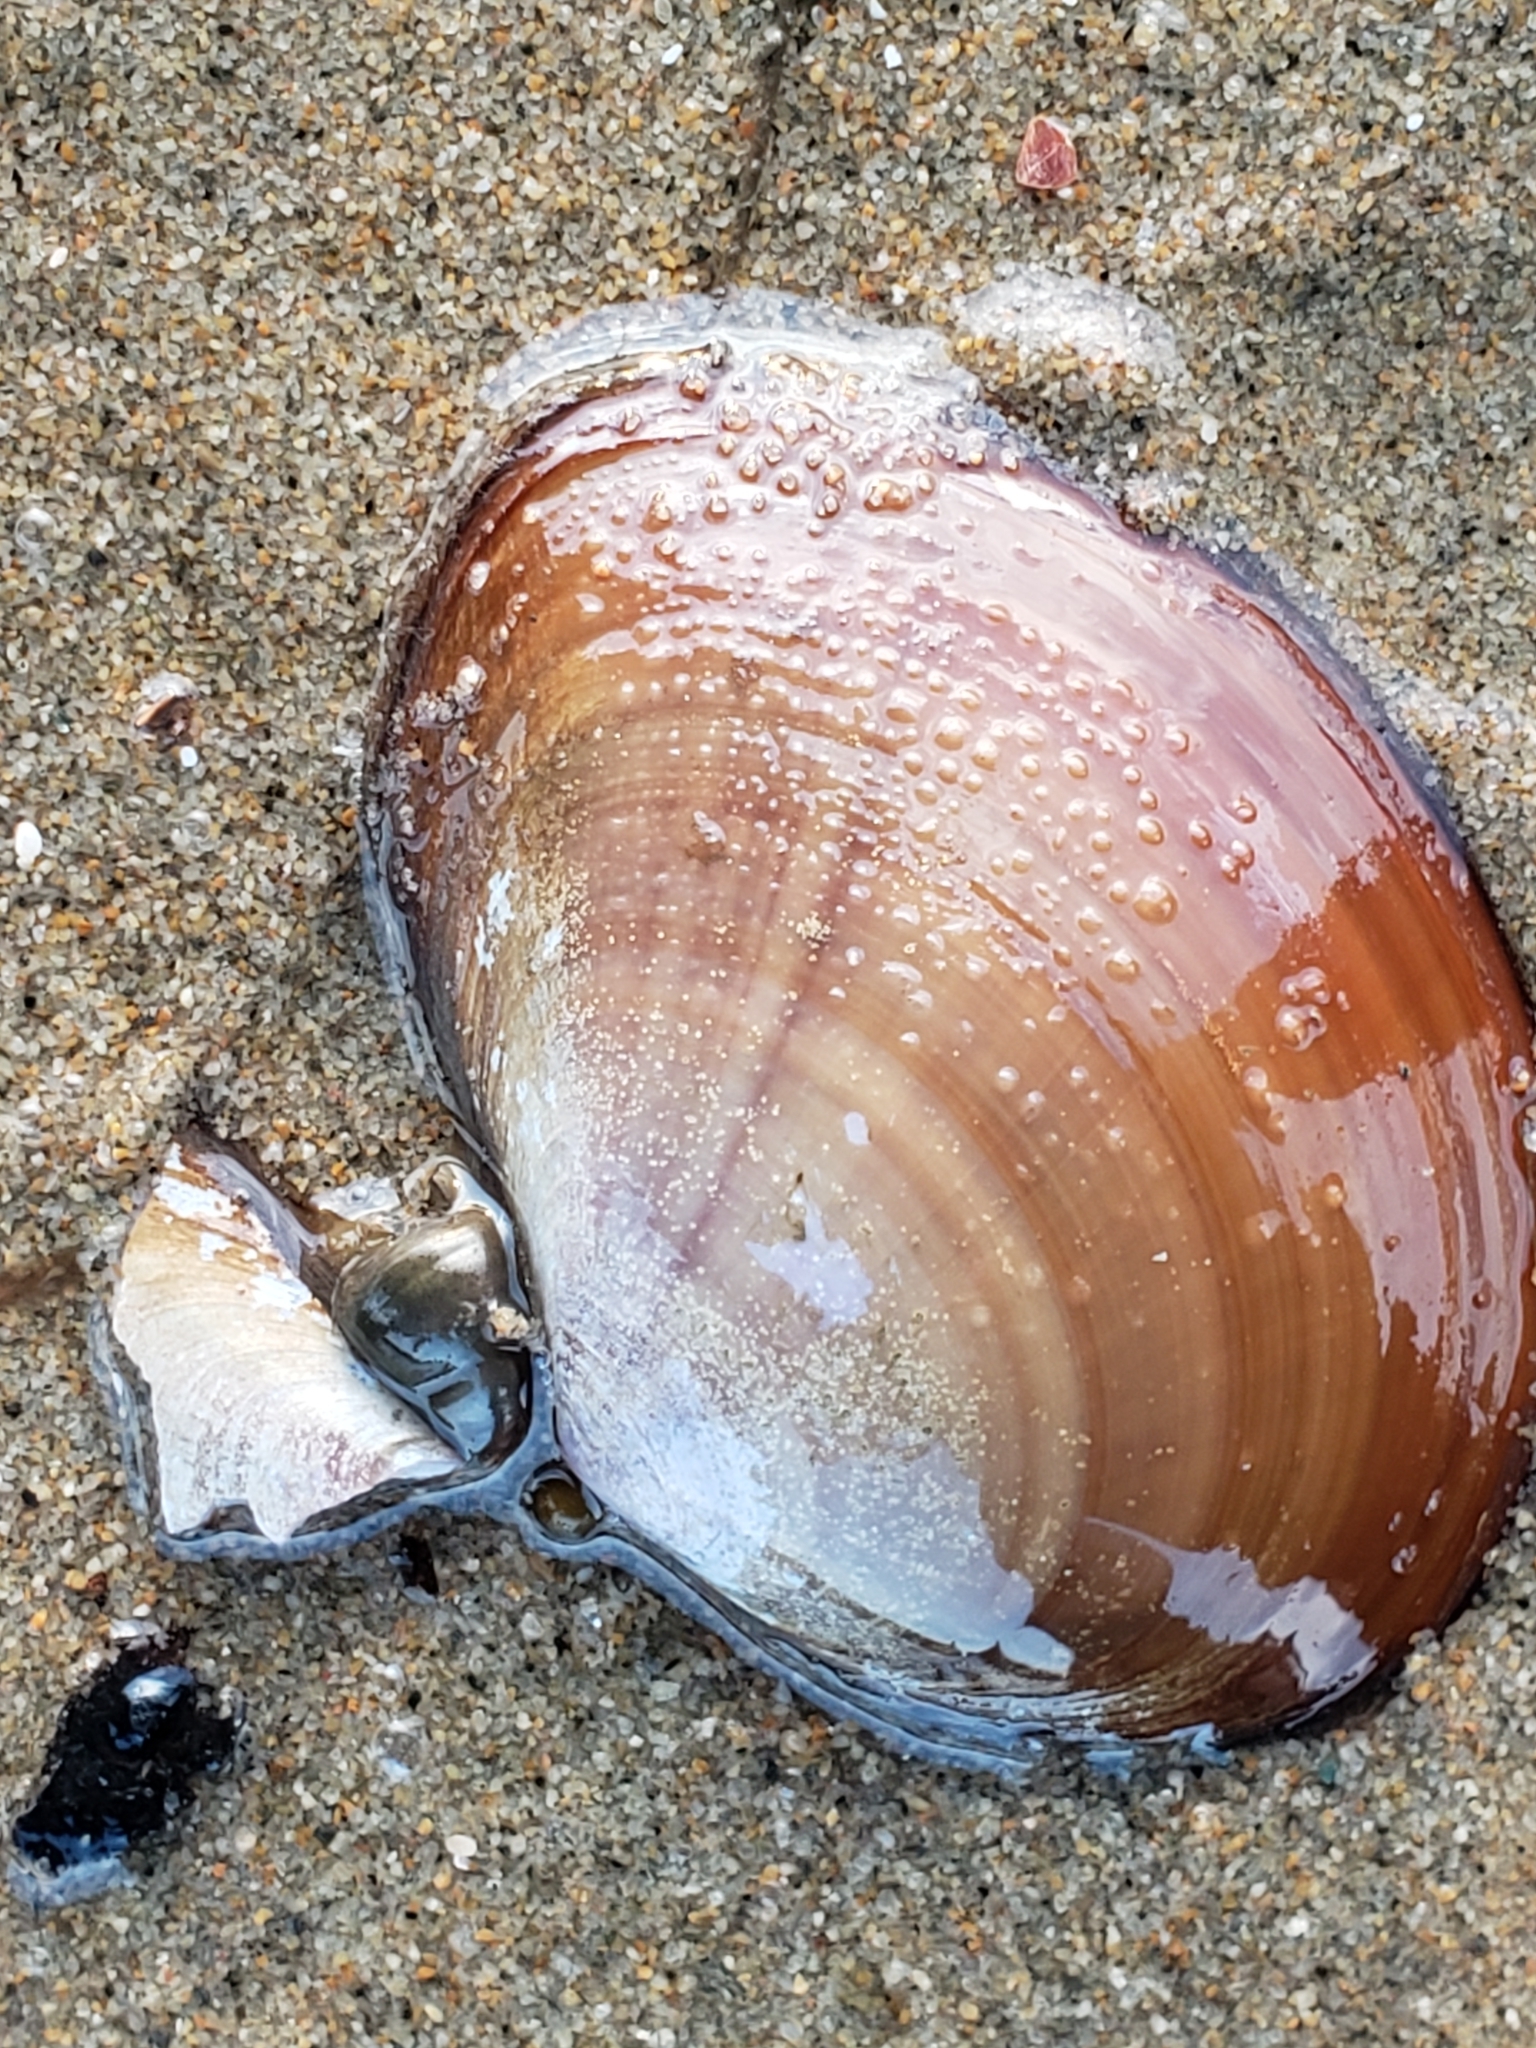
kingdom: Animalia
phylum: Mollusca
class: Bivalvia
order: Cardiida
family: Psammobiidae
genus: Nuttallia
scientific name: Nuttallia nuttallii
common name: California mahogany-clam
